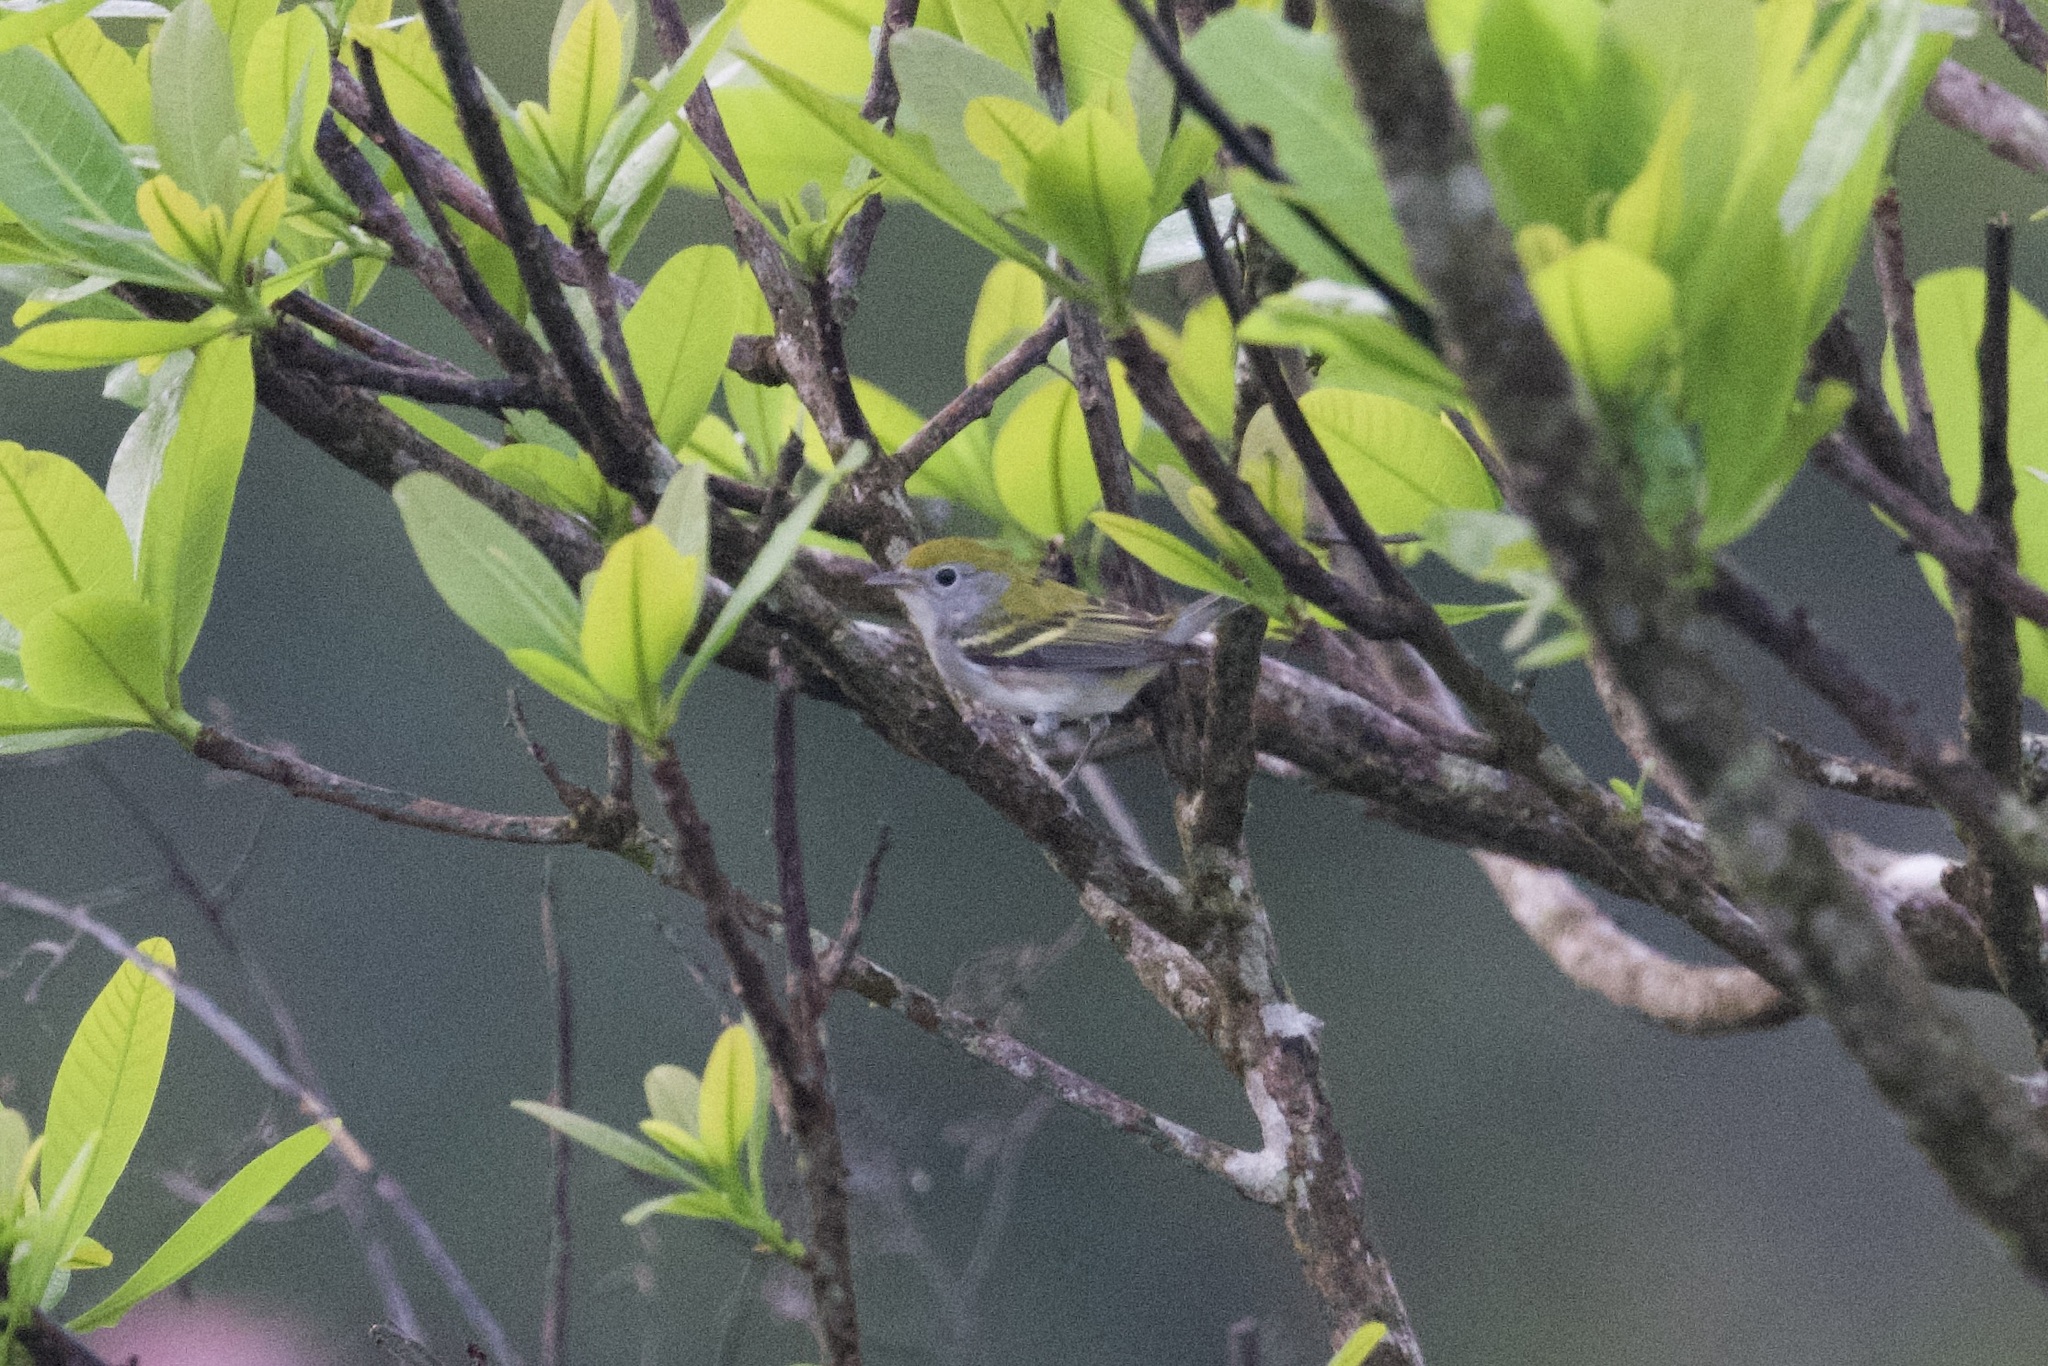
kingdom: Animalia
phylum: Chordata
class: Aves
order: Passeriformes
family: Parulidae
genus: Setophaga
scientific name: Setophaga pensylvanica
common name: Chestnut-sided warbler
